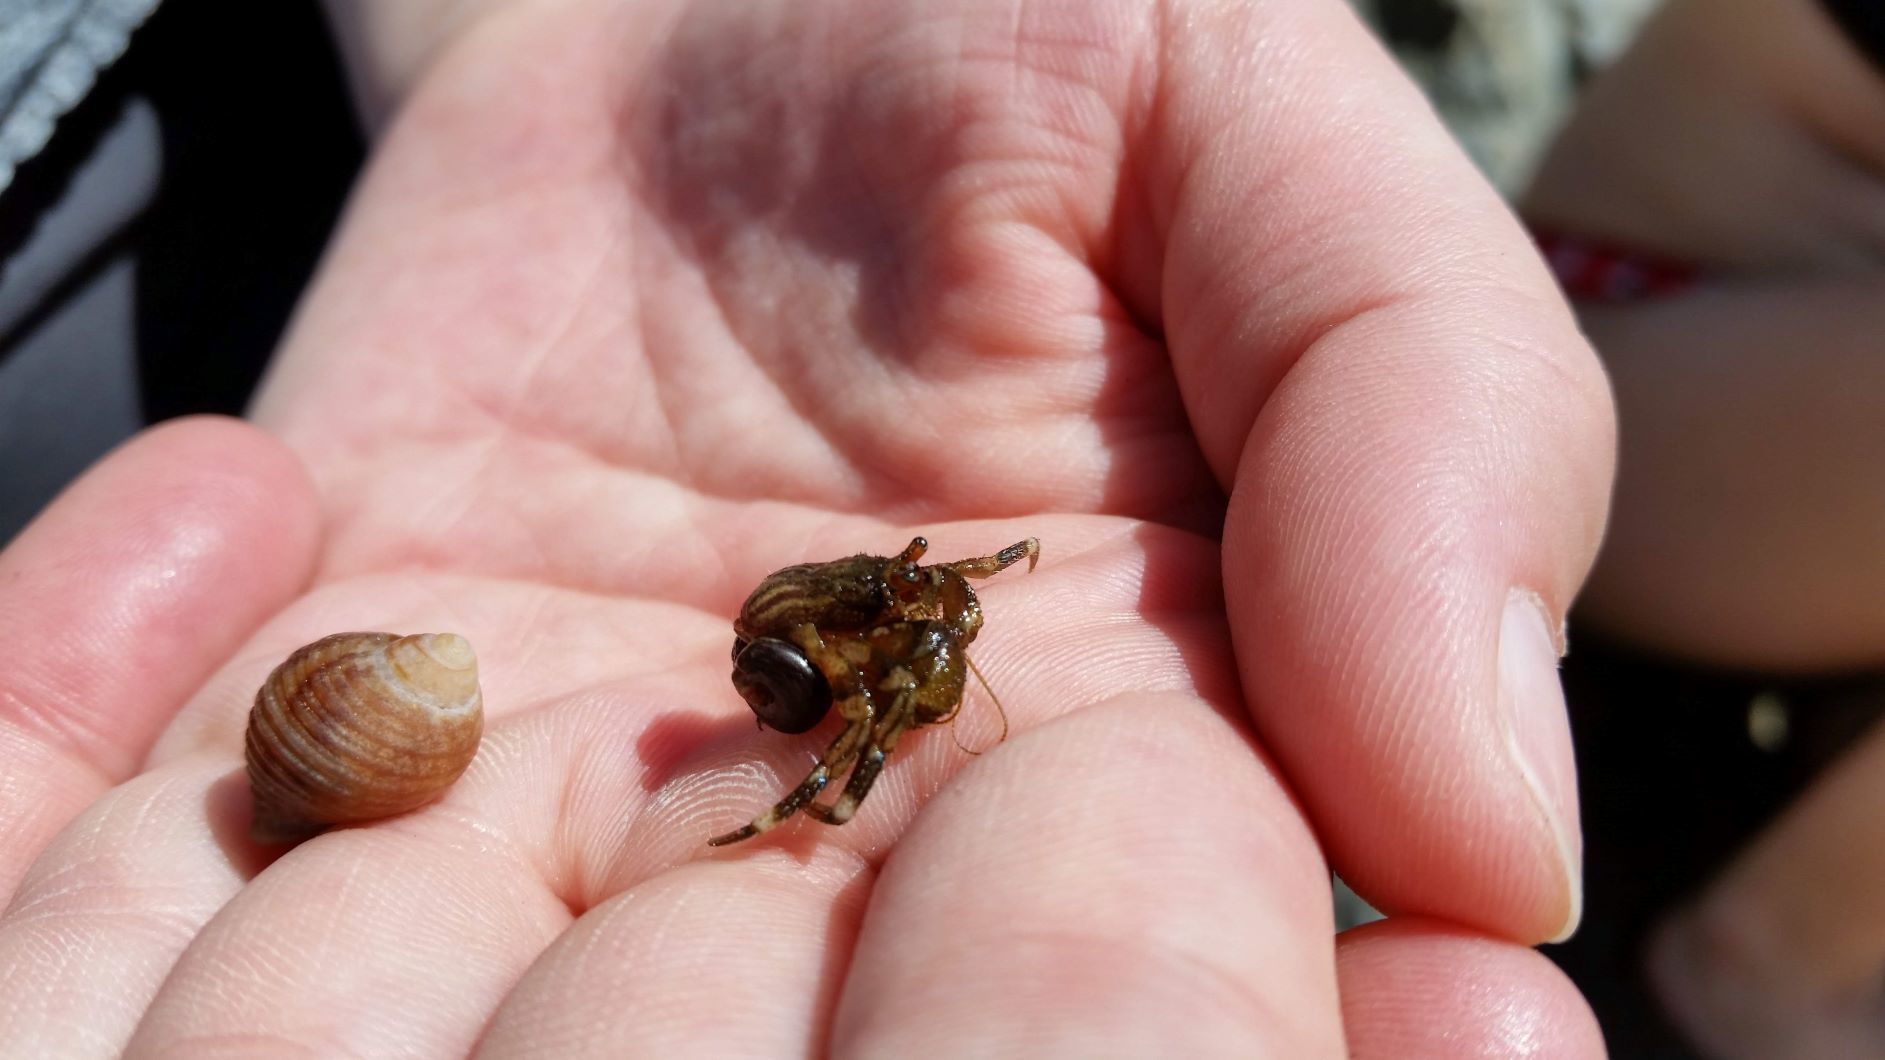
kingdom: Animalia
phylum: Arthropoda
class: Malacostraca
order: Decapoda
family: Paguridae
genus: Pagurus
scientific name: Pagurus hirsutiusculus
